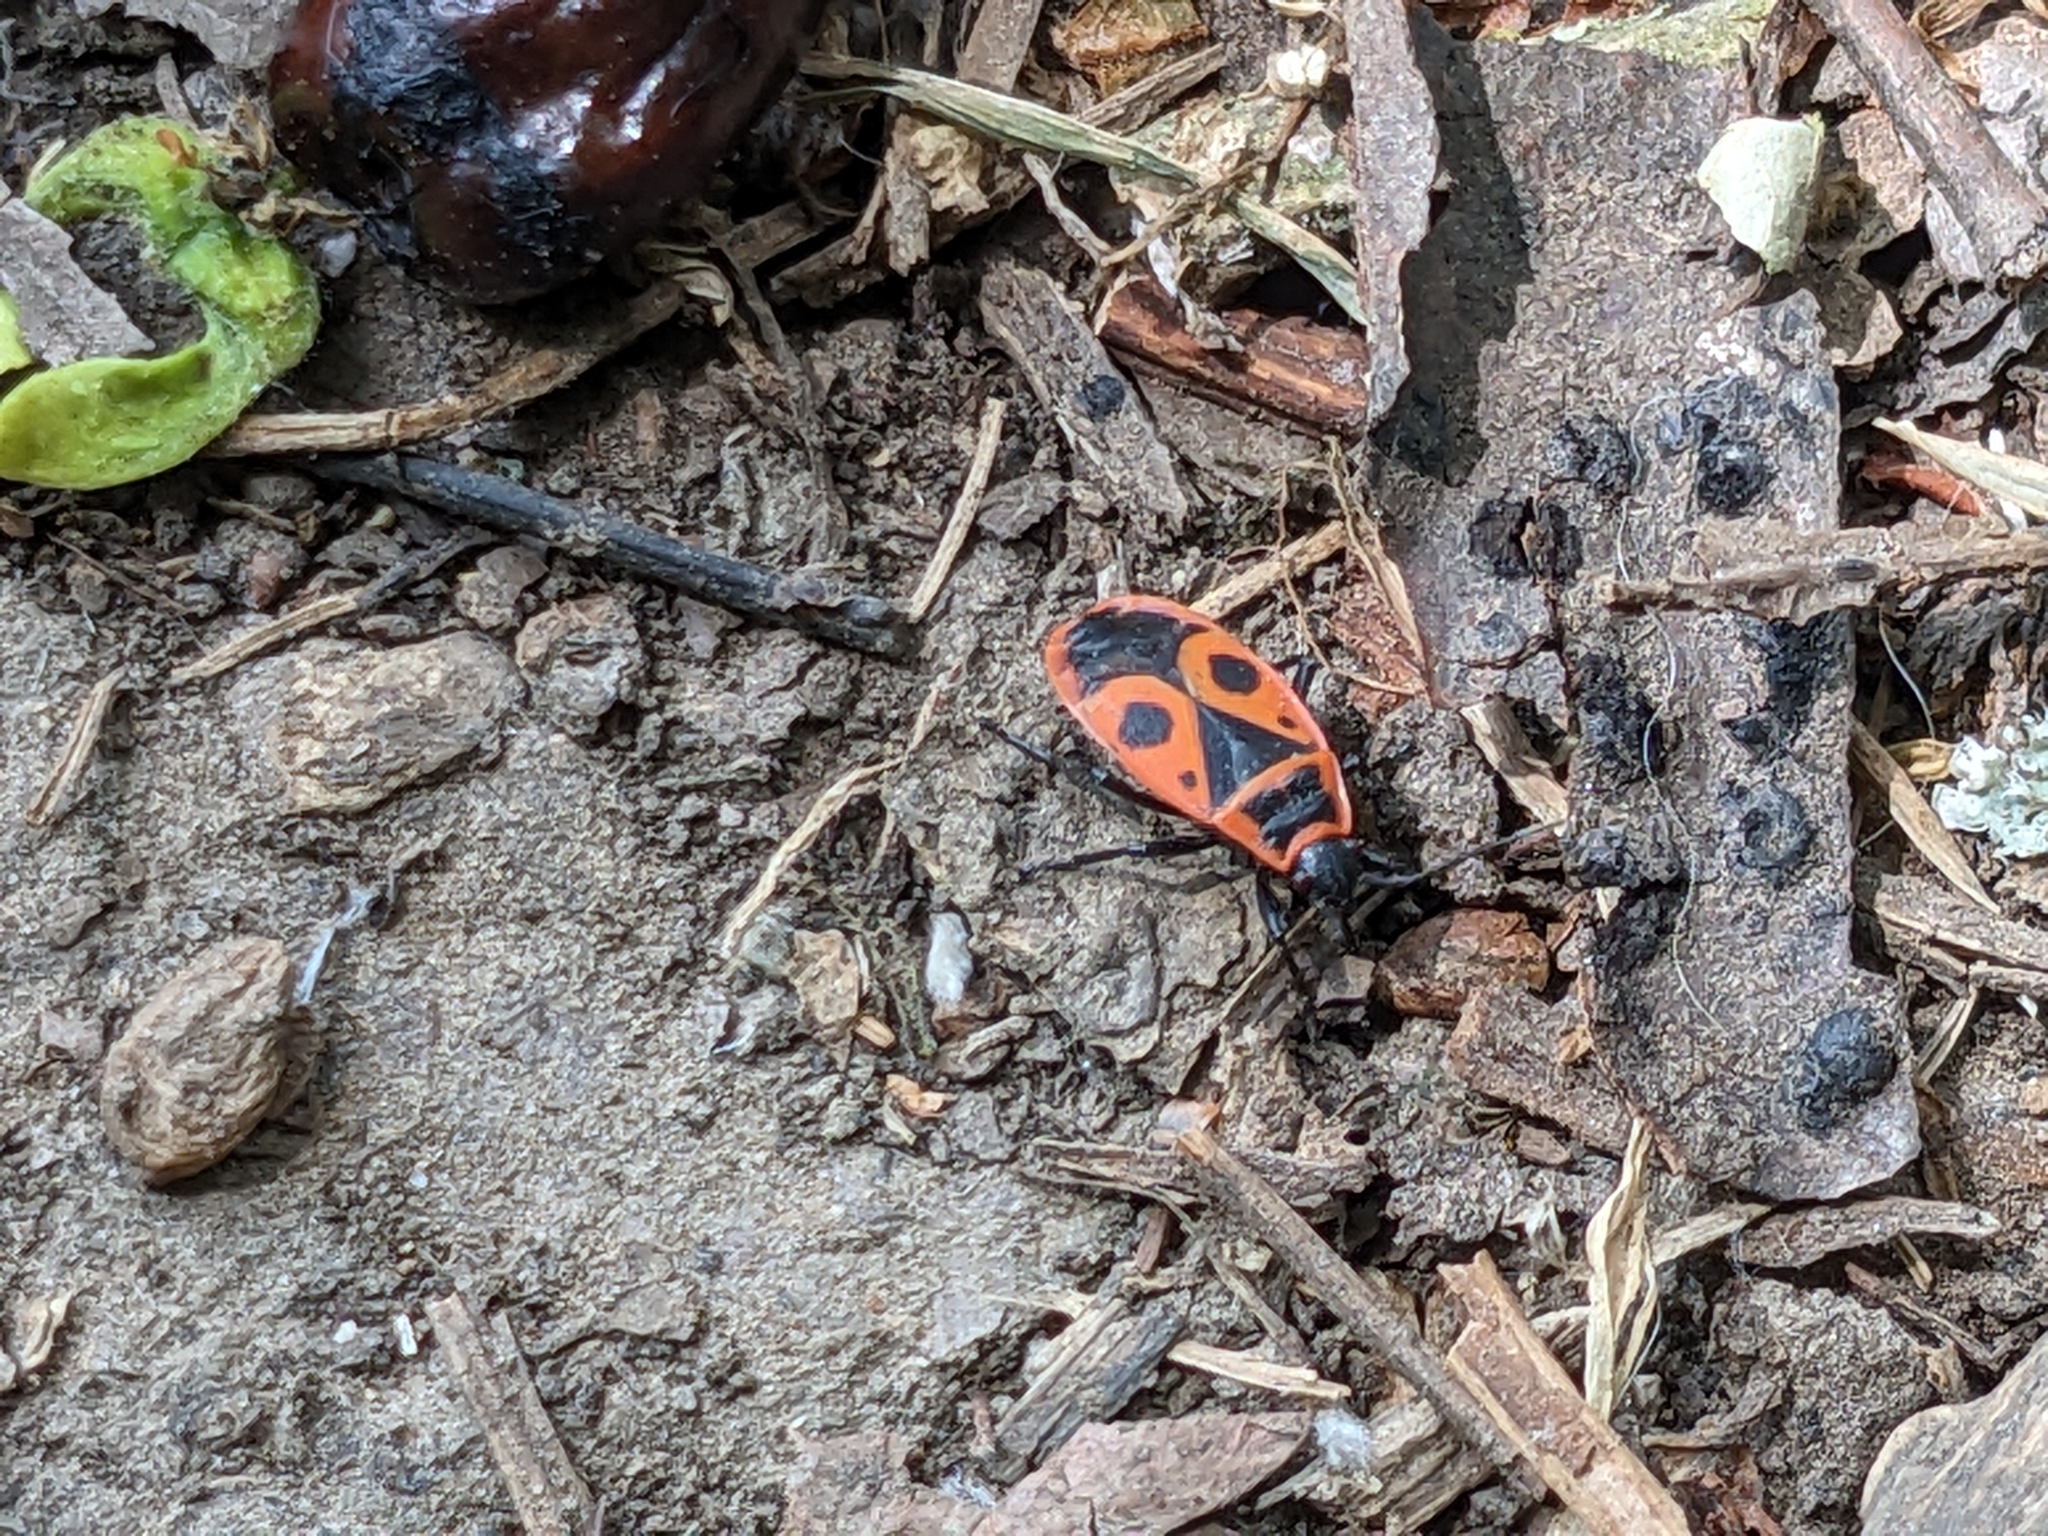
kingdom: Animalia
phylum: Arthropoda
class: Insecta
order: Hemiptera
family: Pyrrhocoridae
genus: Pyrrhocoris
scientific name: Pyrrhocoris apterus
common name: Firebug
